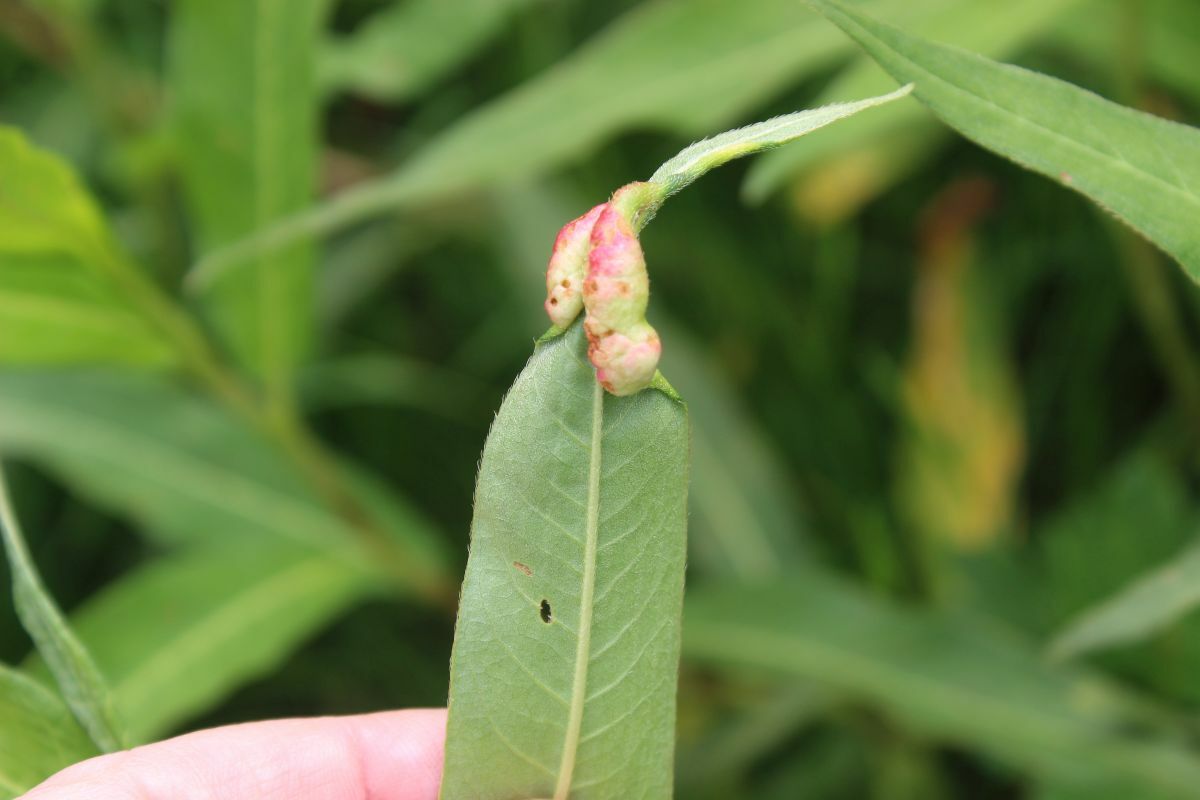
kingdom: Animalia
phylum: Arthropoda
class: Insecta
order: Diptera
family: Cecidomyiidae
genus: Wachtliella
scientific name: Wachtliella persicariae
